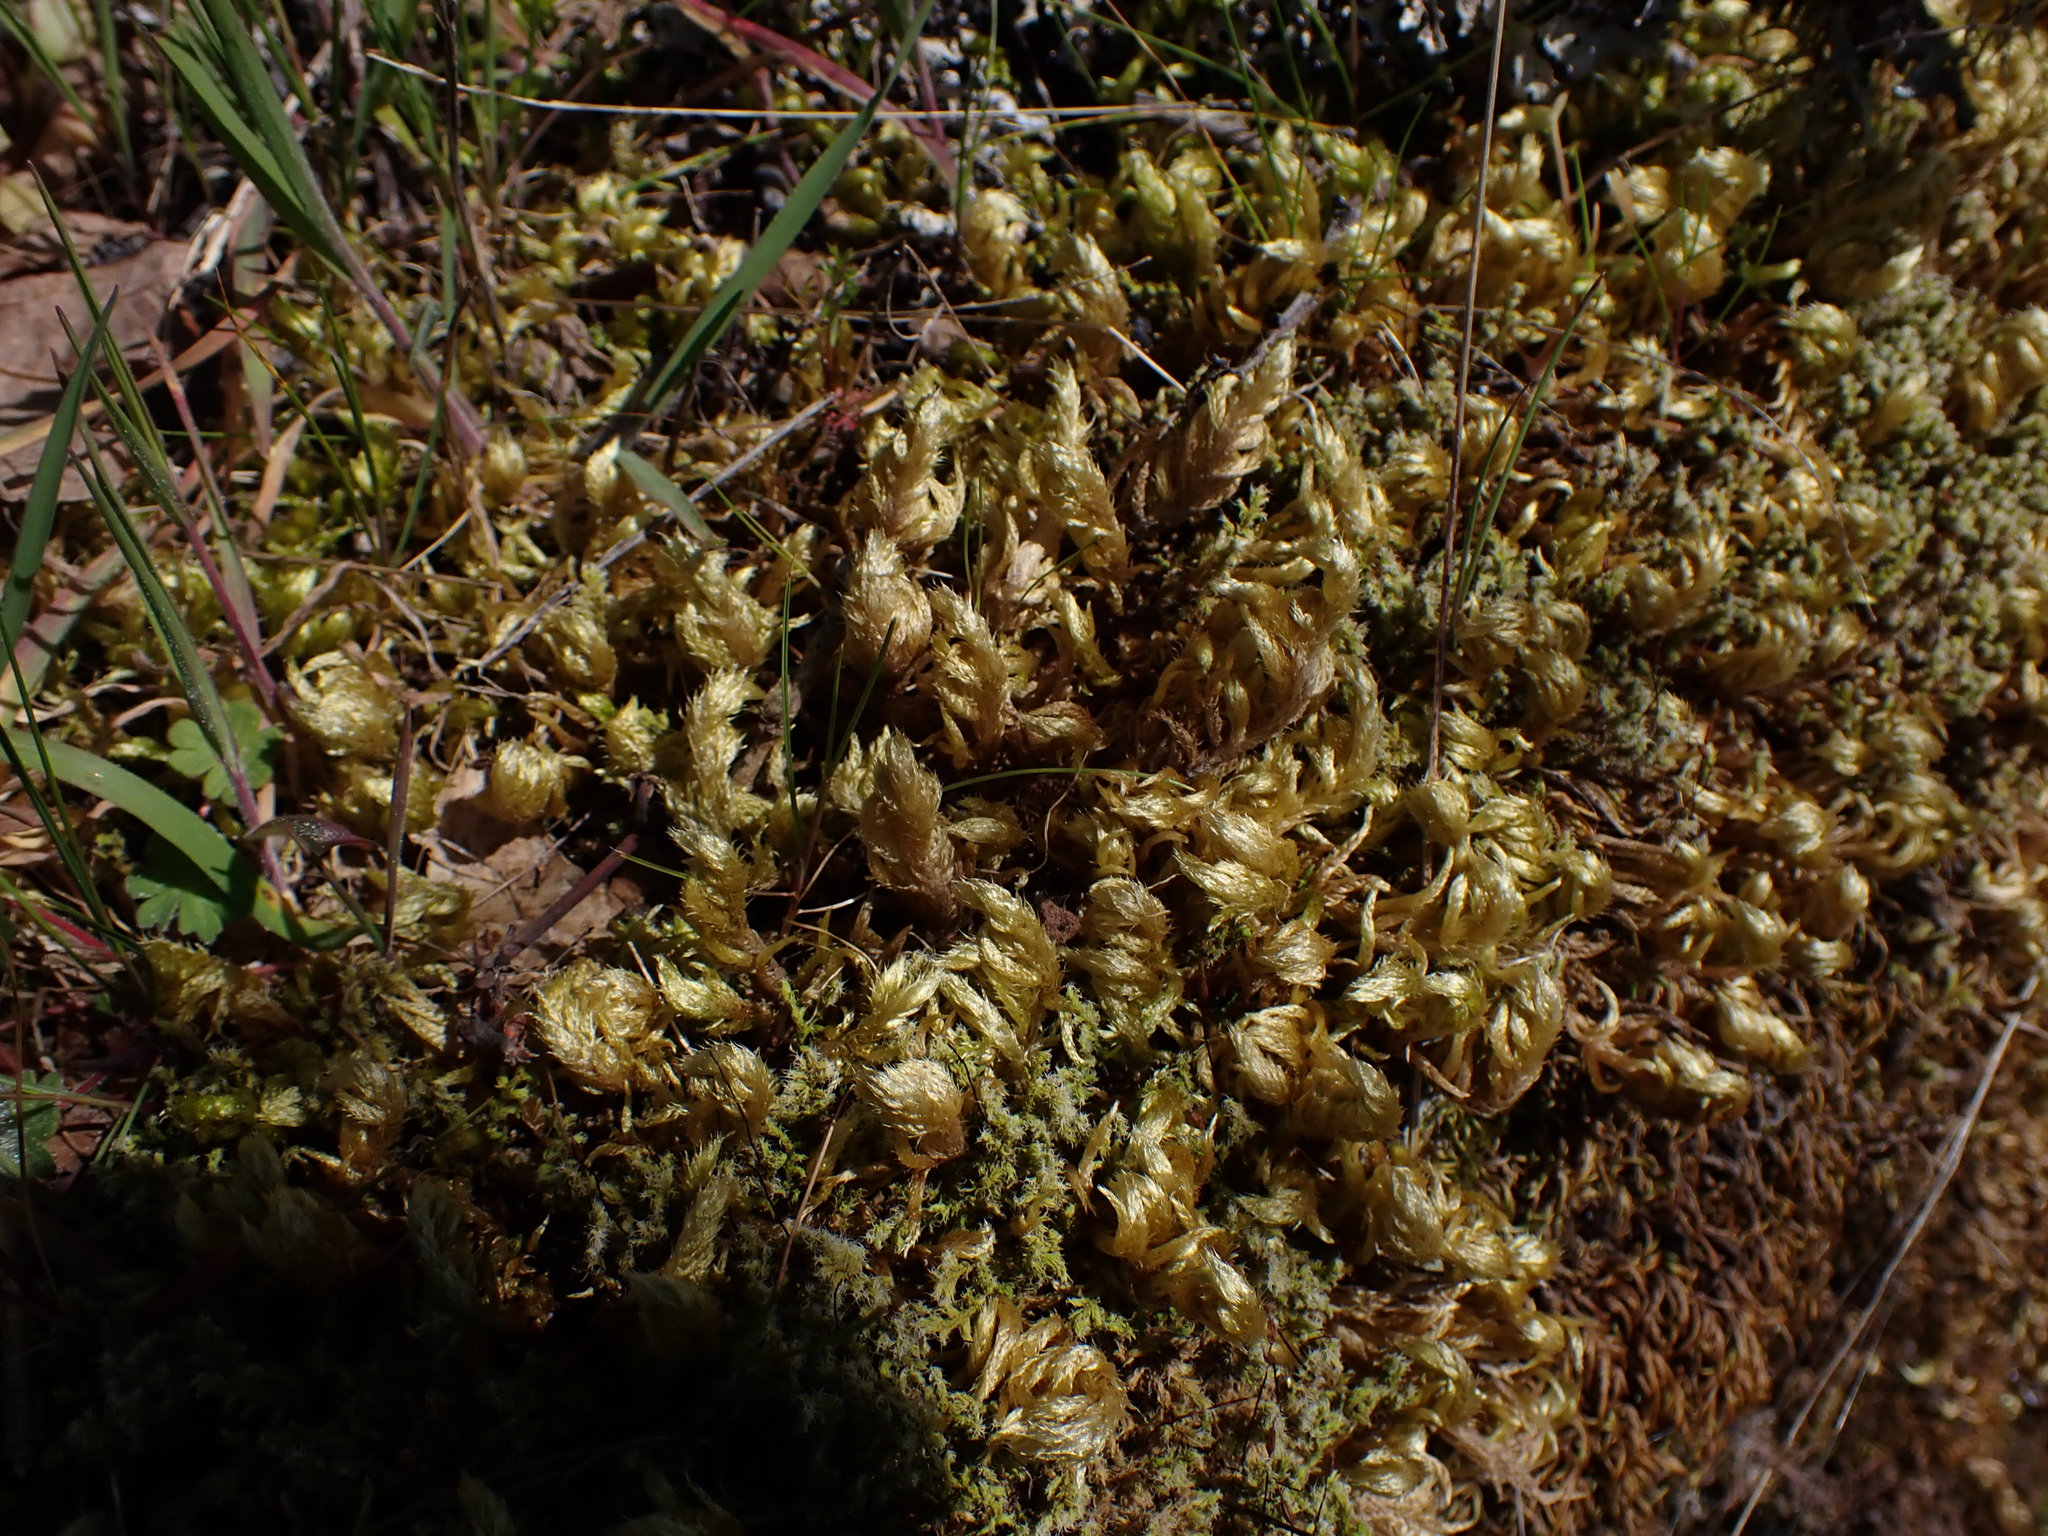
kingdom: Plantae
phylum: Bryophyta
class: Bryopsida
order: Hypnales
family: Brachytheciaceae
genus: Homalothecium
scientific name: Homalothecium megaptilum
